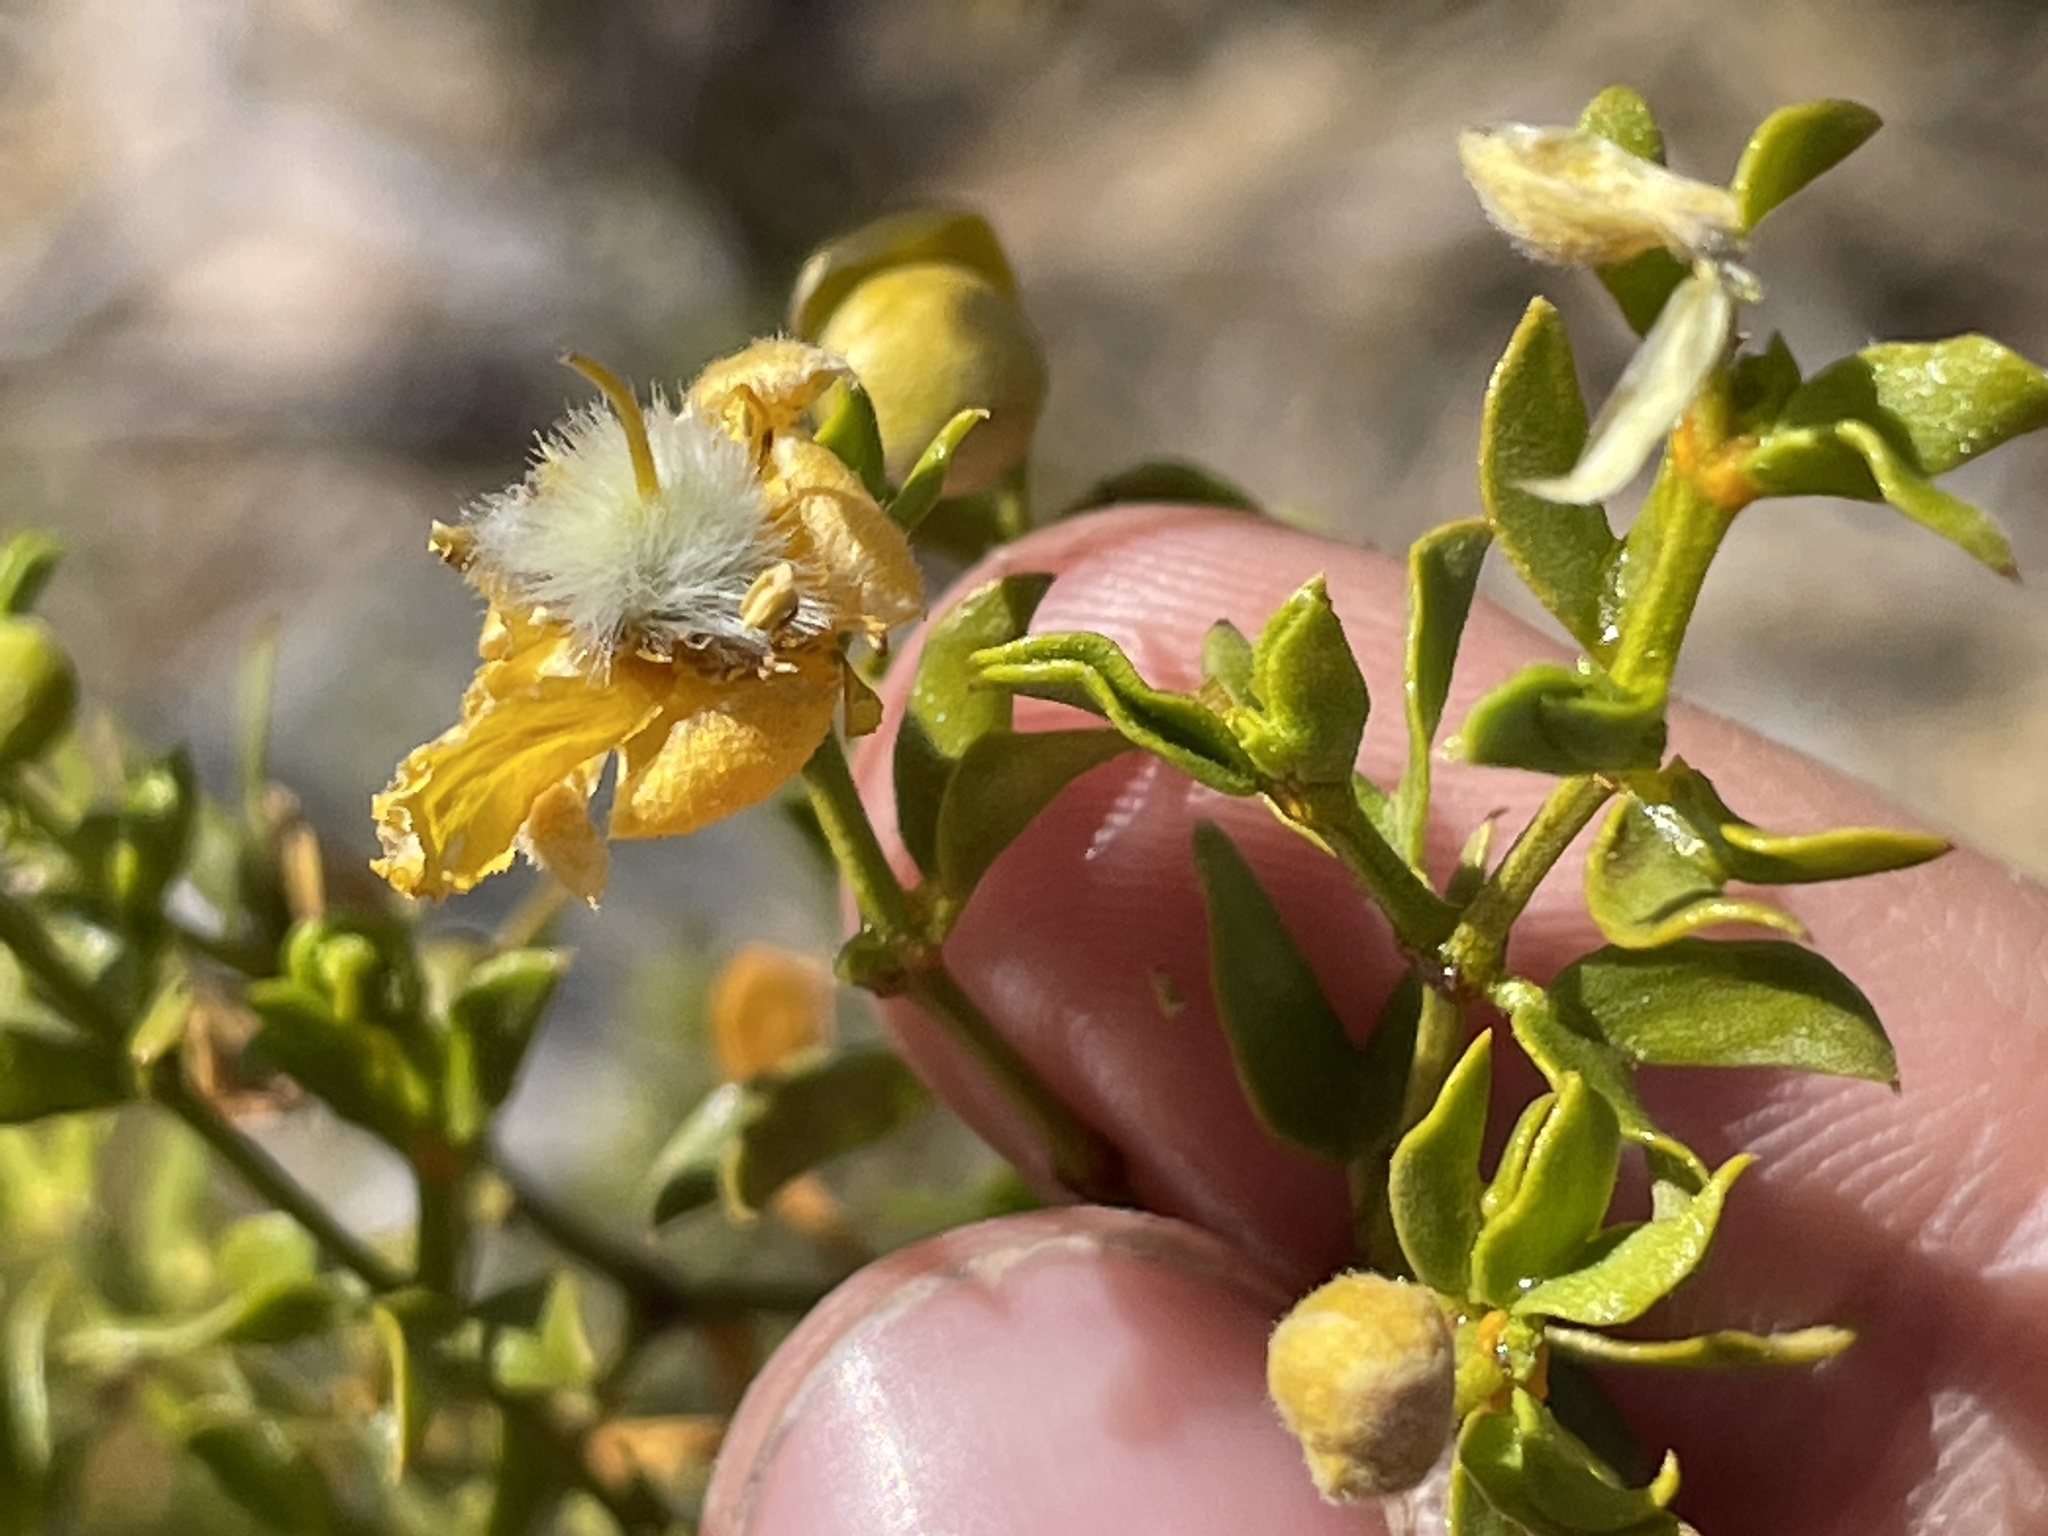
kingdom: Plantae
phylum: Tracheophyta
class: Magnoliopsida
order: Zygophyllales
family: Zygophyllaceae
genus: Larrea
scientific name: Larrea tridentata
